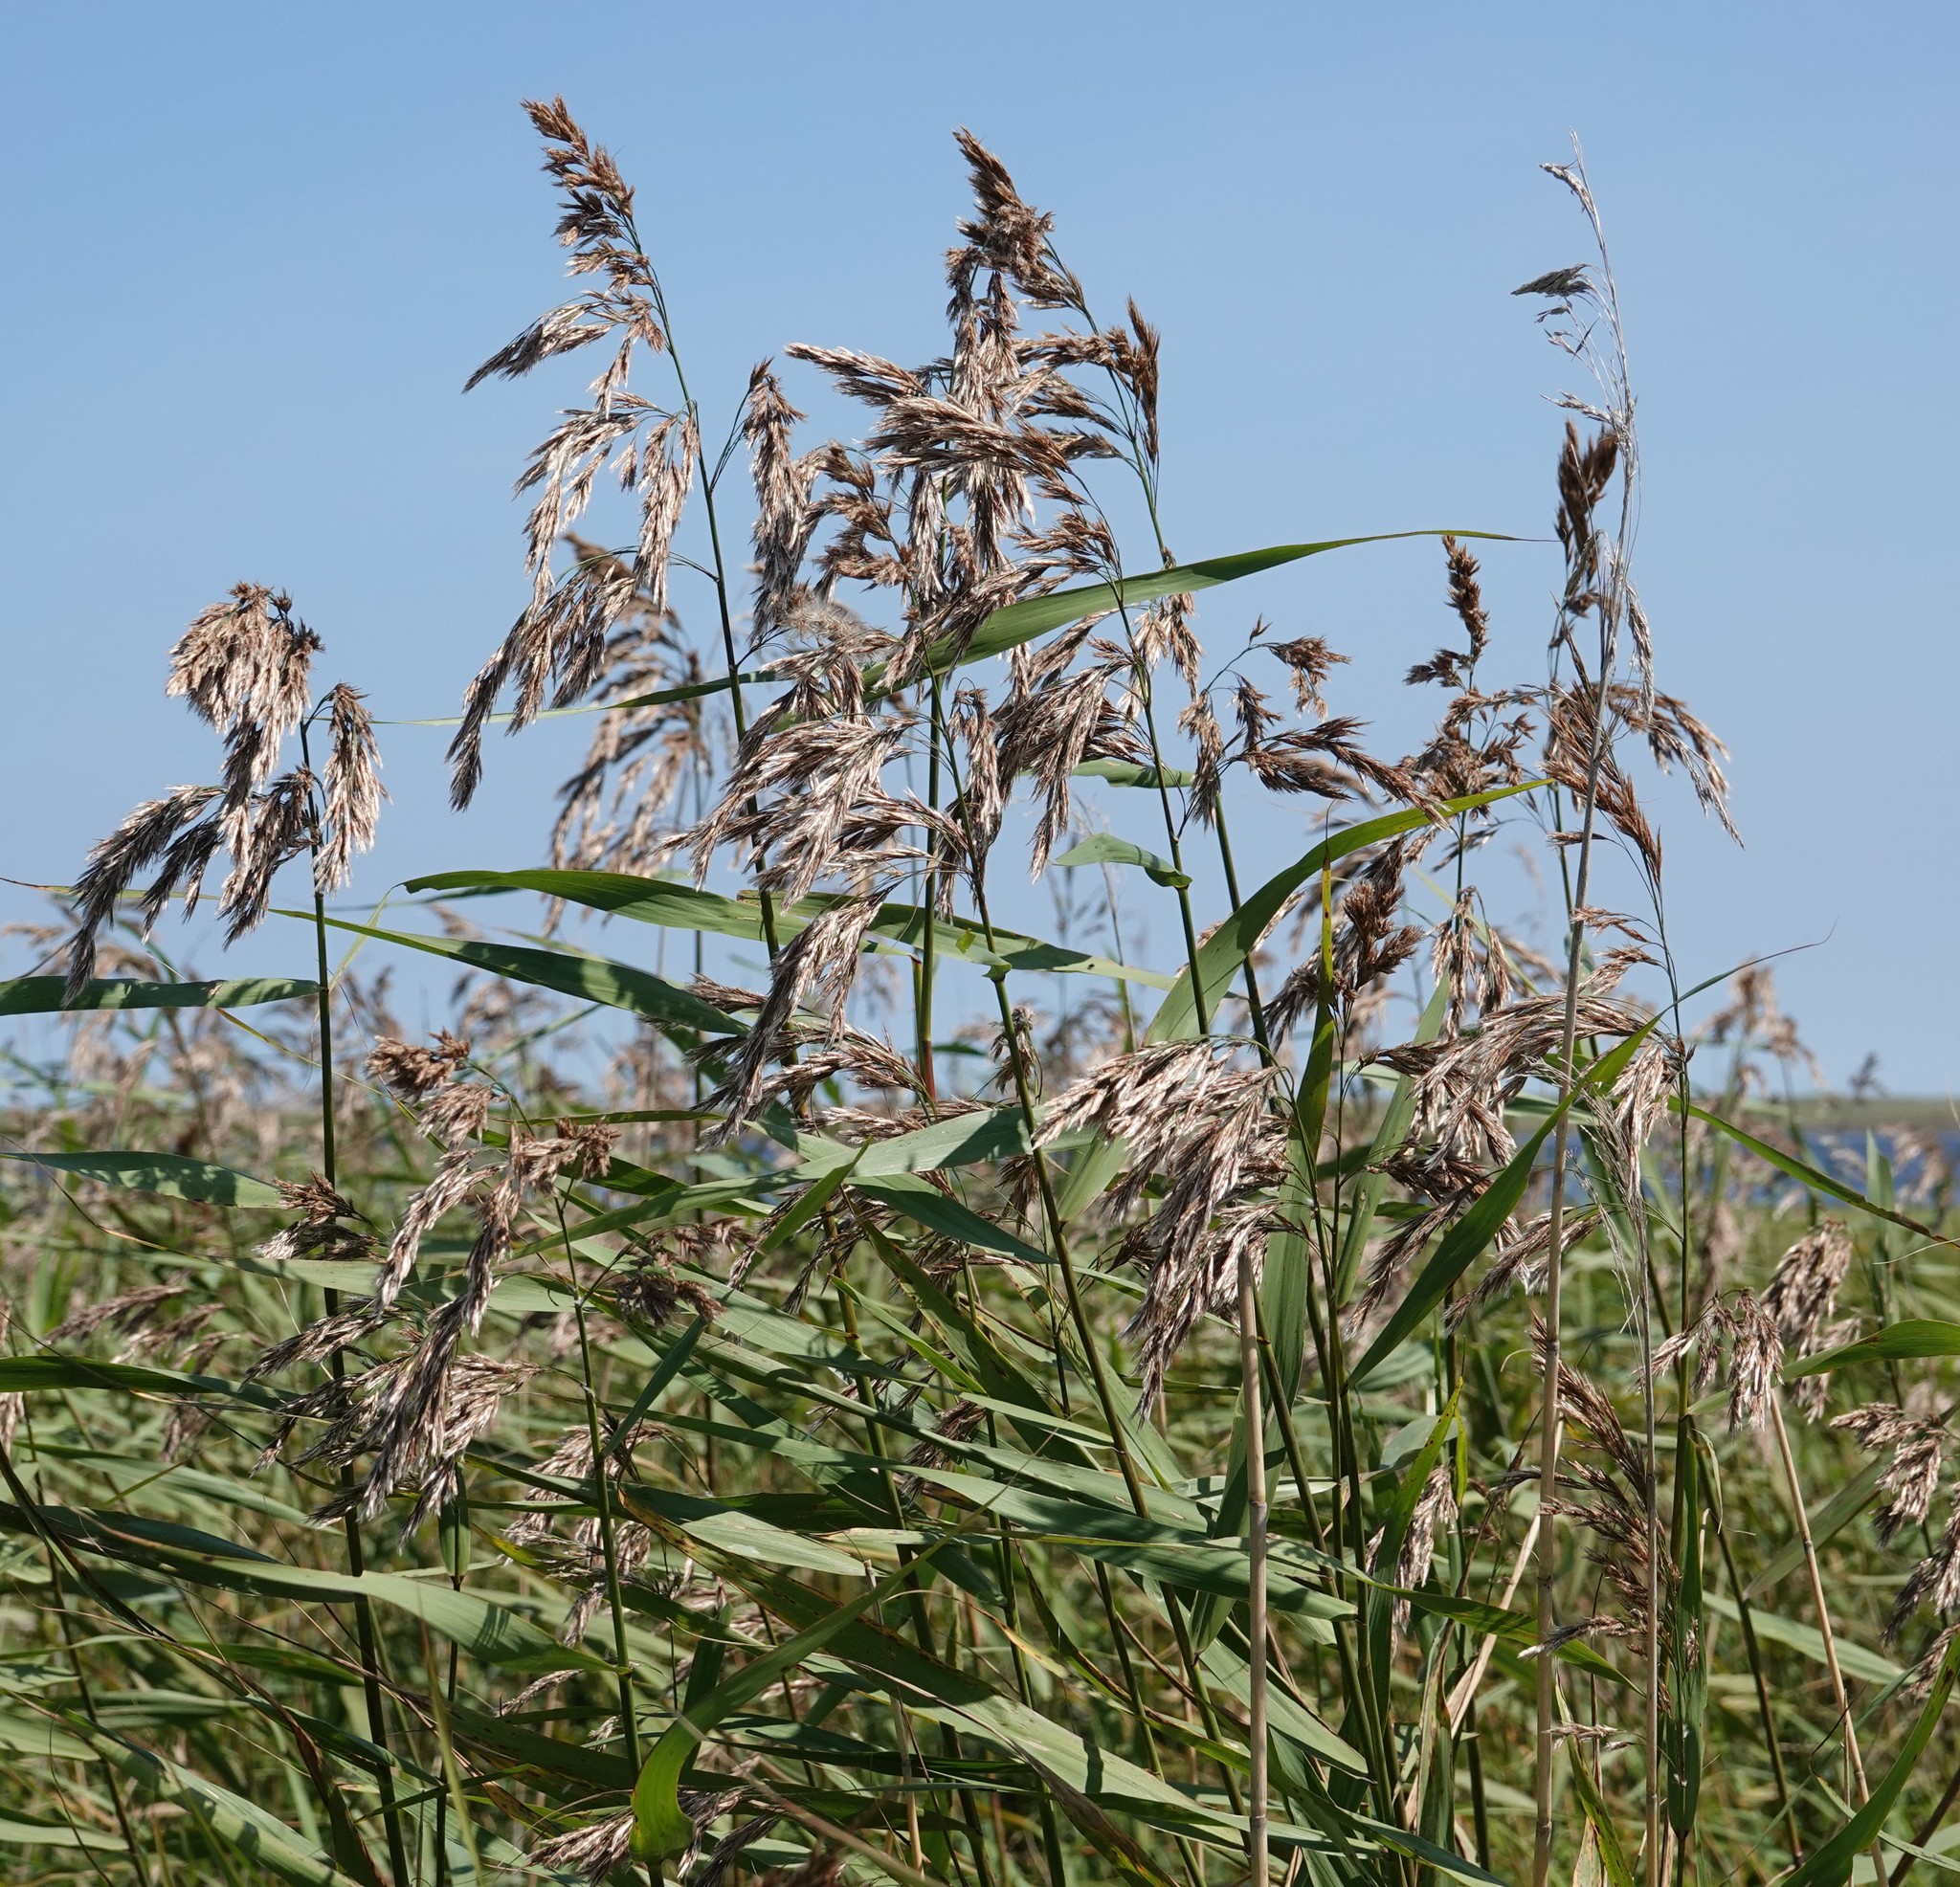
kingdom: Plantae
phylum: Tracheophyta
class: Liliopsida
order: Poales
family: Poaceae
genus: Phragmites
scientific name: Phragmites australis
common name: Common reed
